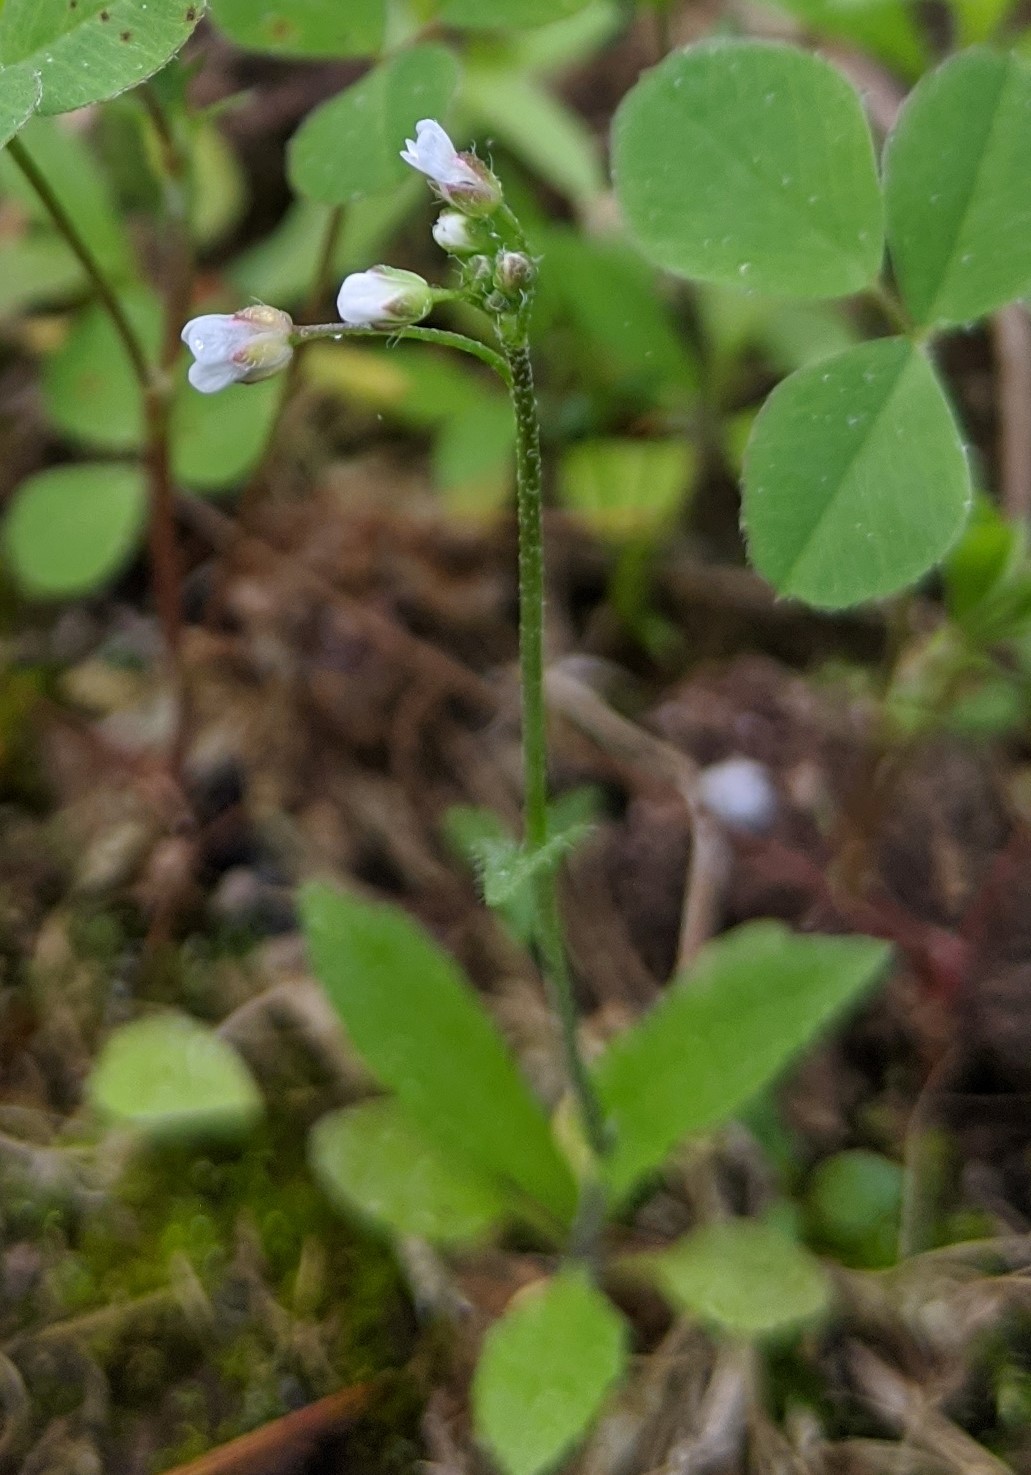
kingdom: Plantae
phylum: Tracheophyta
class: Magnoliopsida
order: Brassicales
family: Brassicaceae
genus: Capsella
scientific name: Capsella bursa-pastoris
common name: Shepherd's purse
